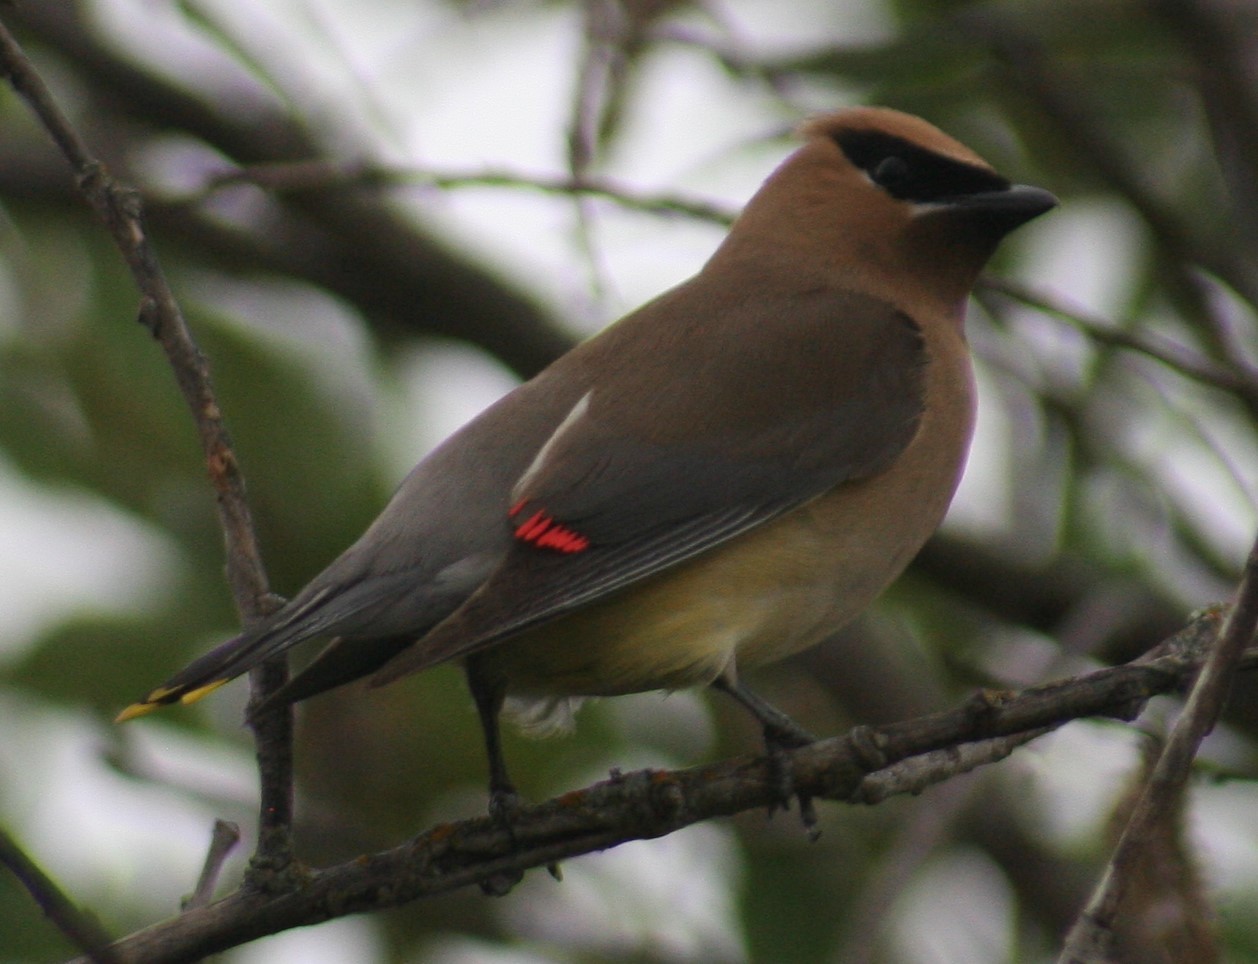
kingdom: Animalia
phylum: Chordata
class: Aves
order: Passeriformes
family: Bombycillidae
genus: Bombycilla
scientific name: Bombycilla cedrorum
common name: Cedar waxwing
